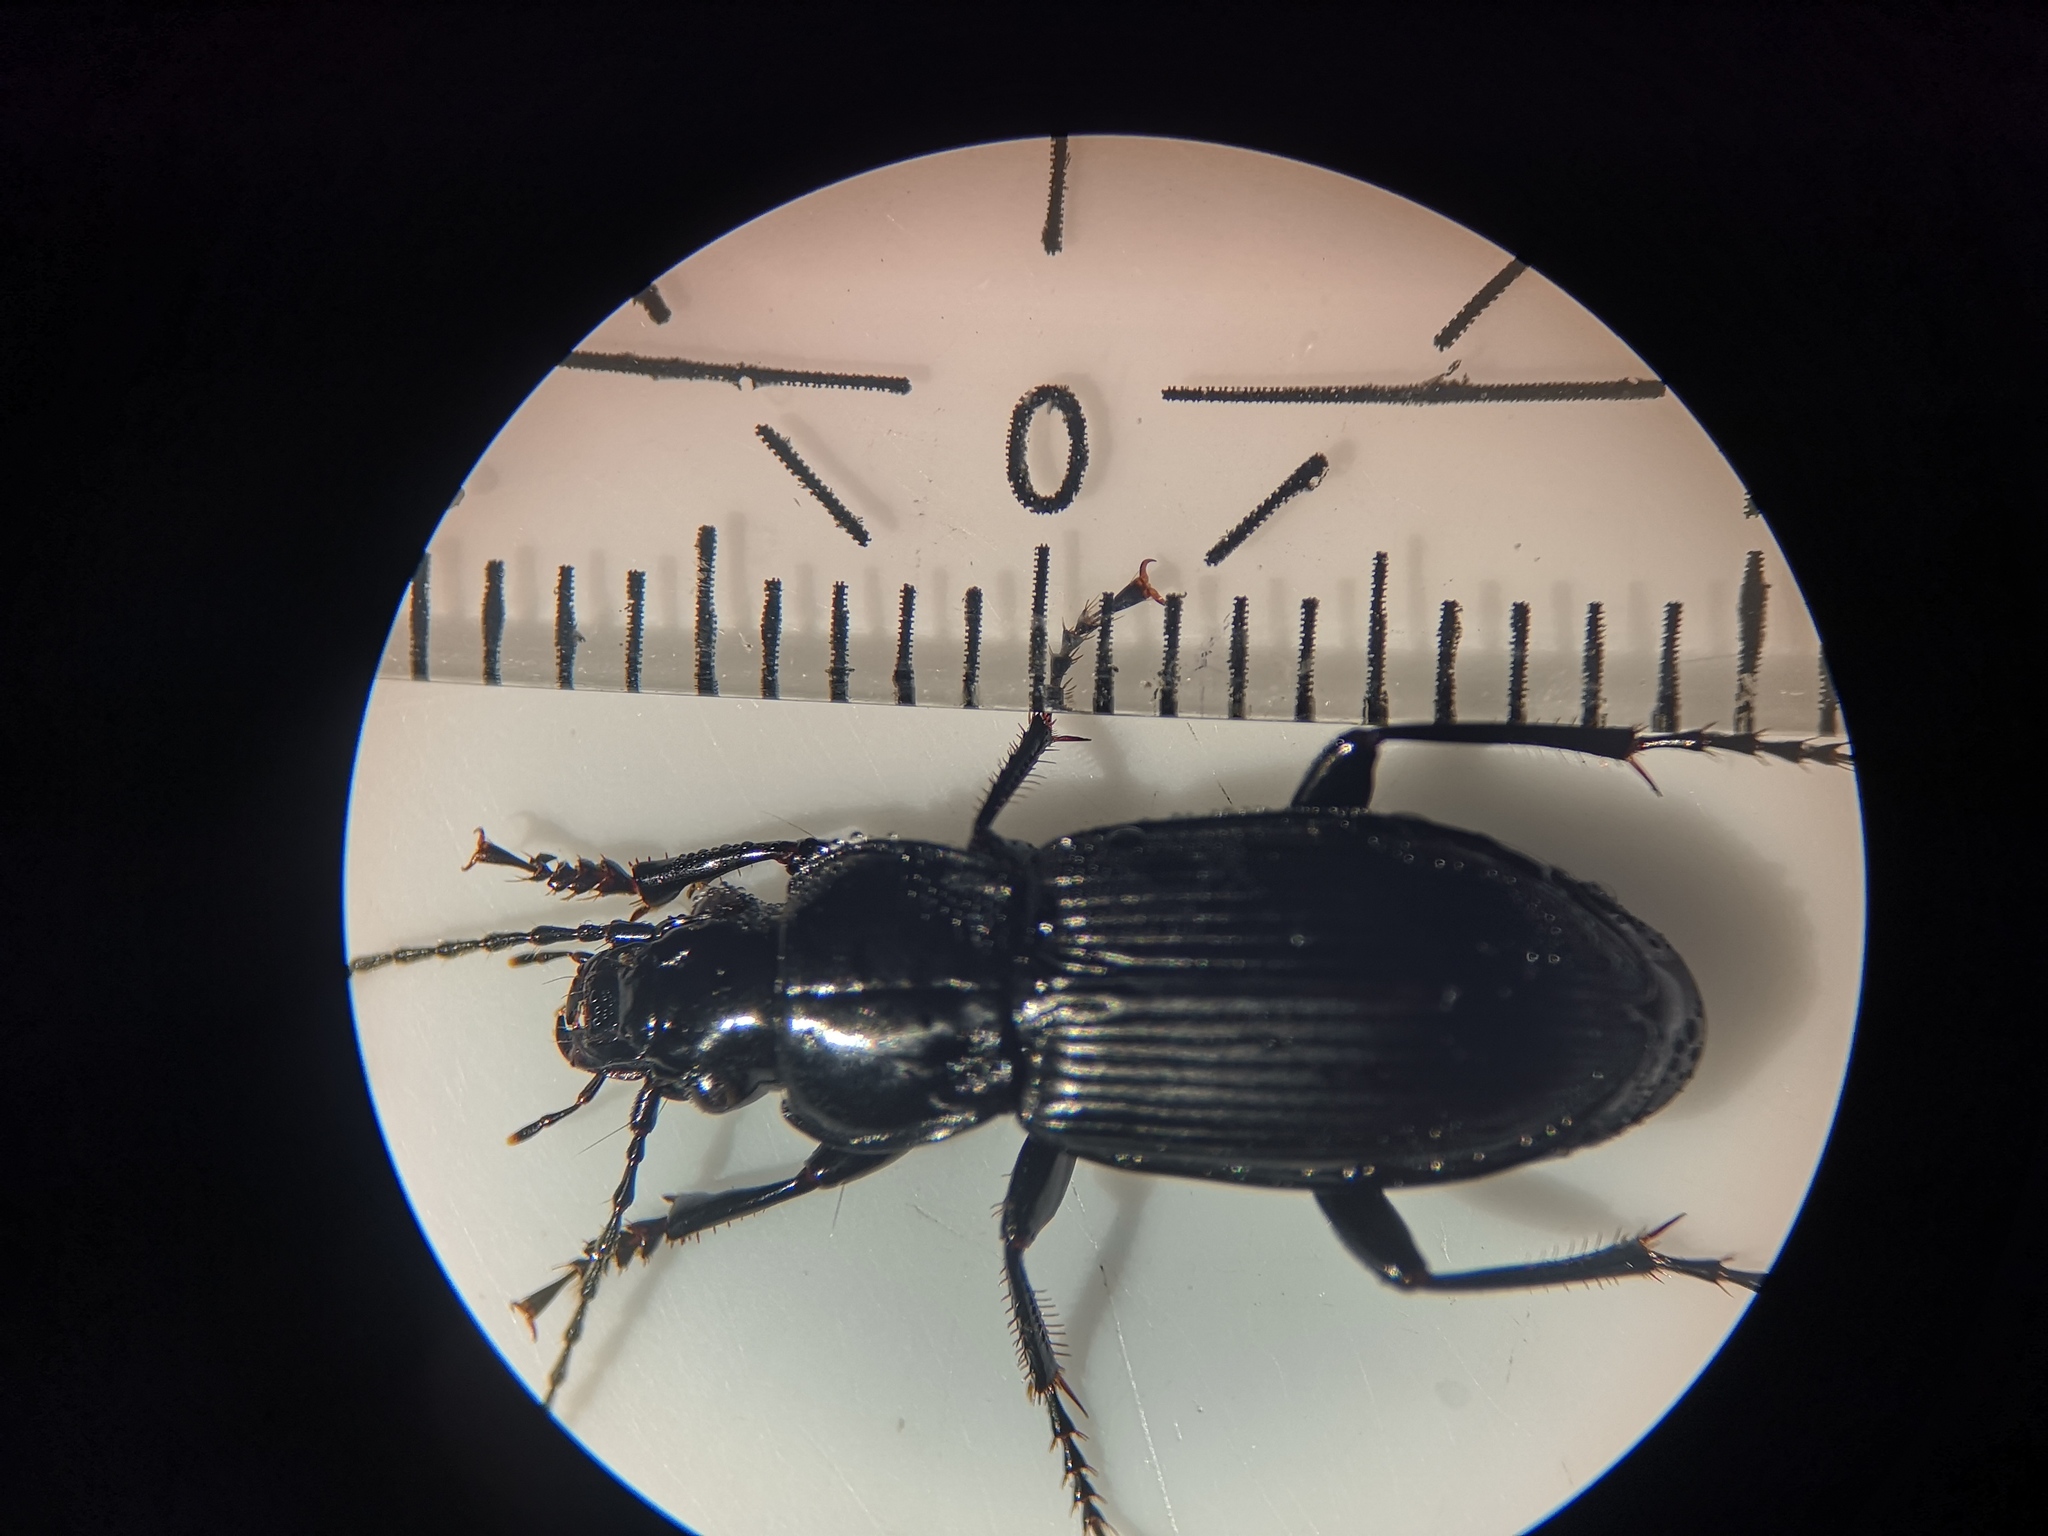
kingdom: Animalia
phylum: Arthropoda
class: Insecta
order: Coleoptera
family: Carabidae
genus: Pterostichus
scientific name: Pterostichus melanarius
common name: European dark harp ground beetle
